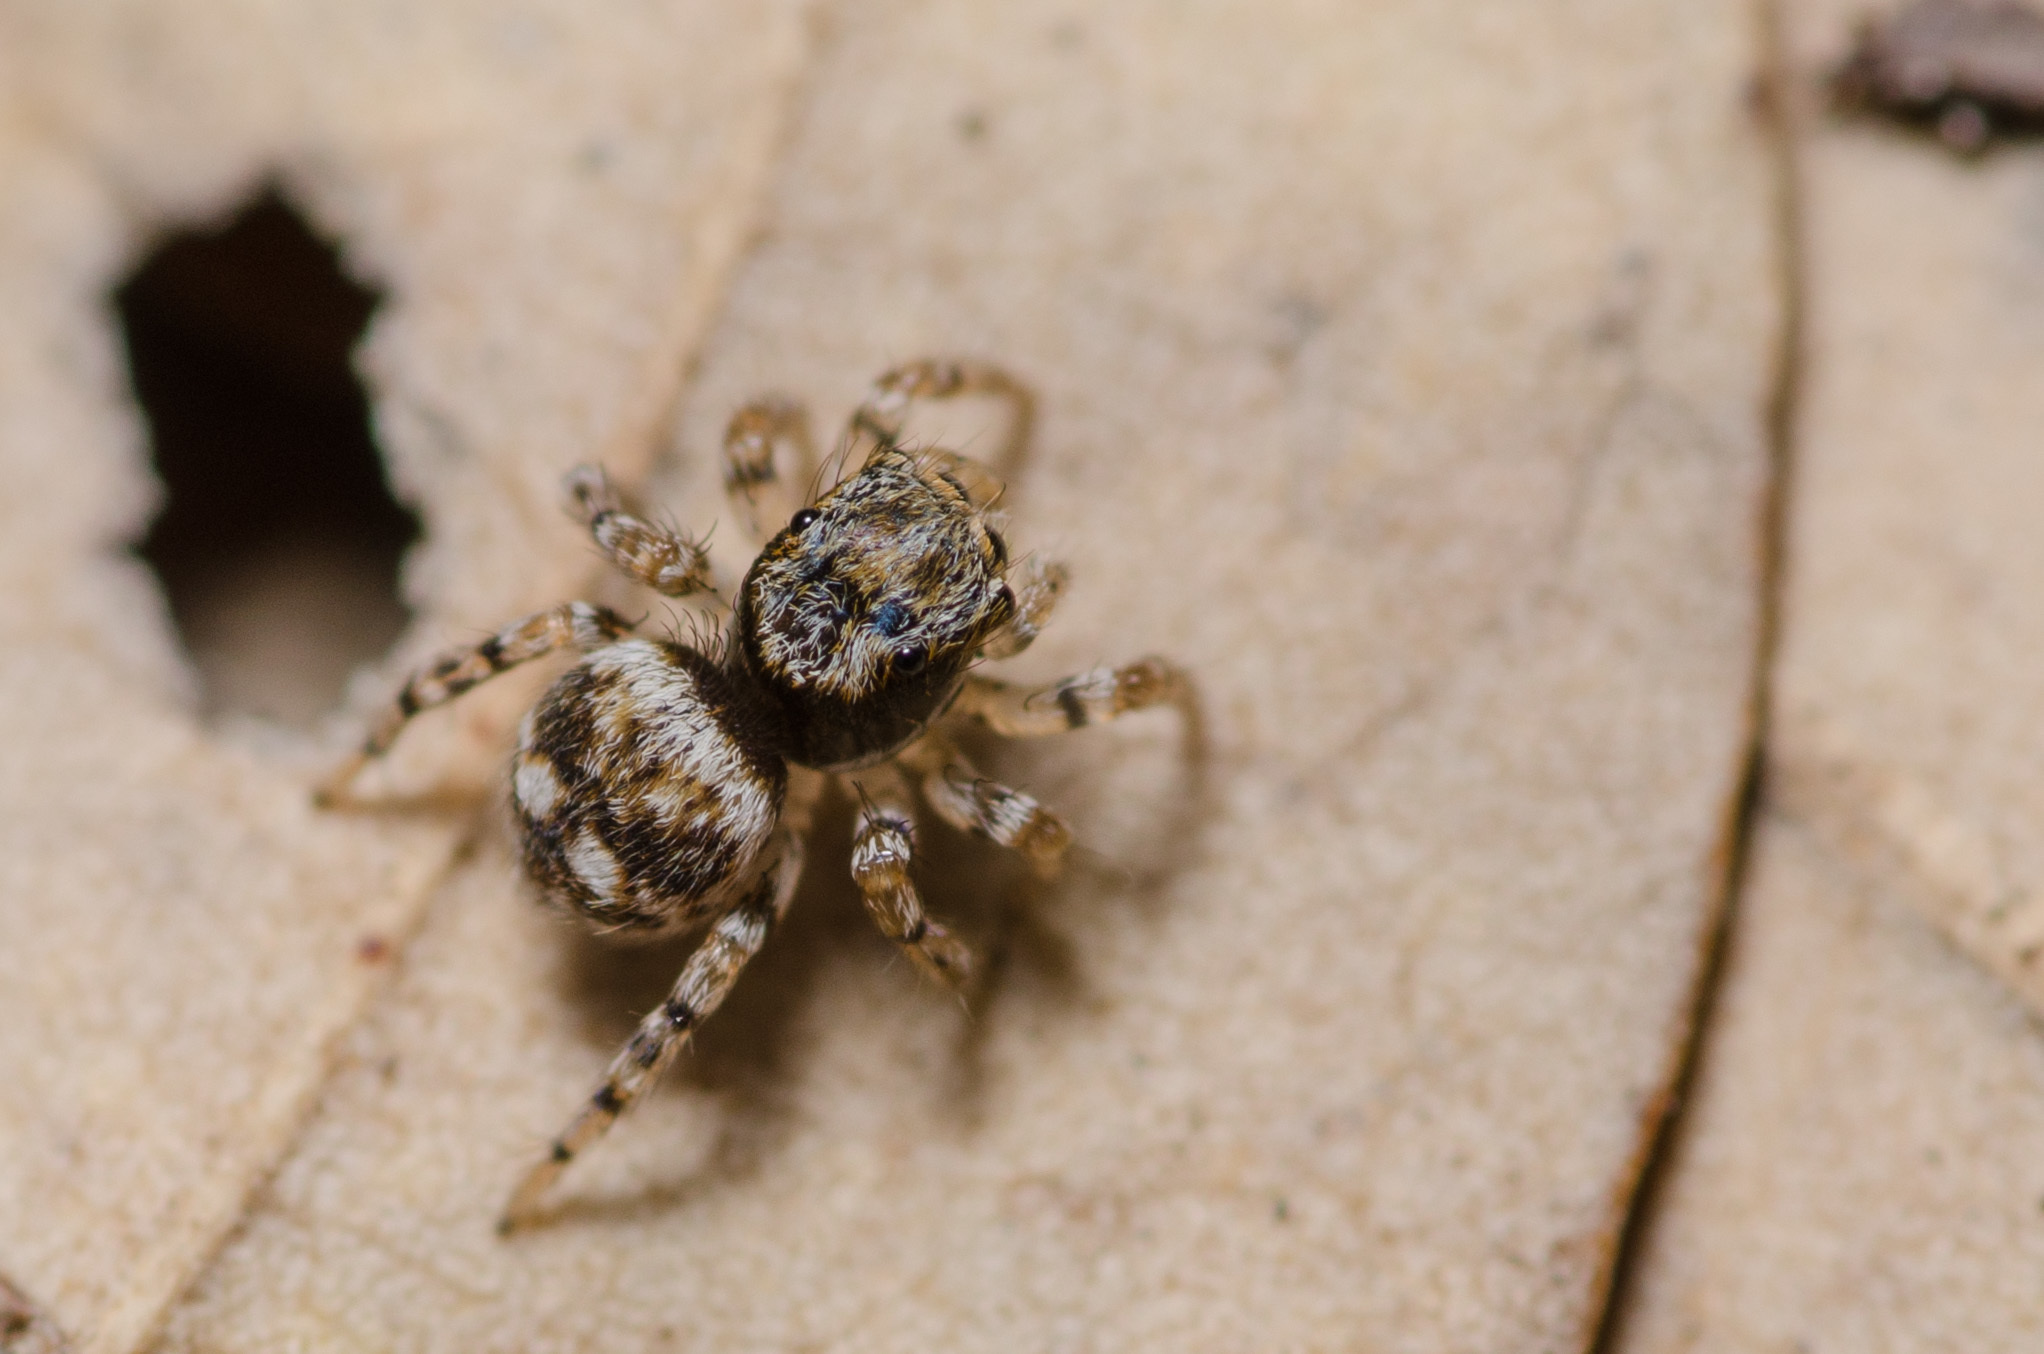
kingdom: Animalia
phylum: Arthropoda
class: Arachnida
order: Araneae
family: Salticidae
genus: Naphrys
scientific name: Naphrys acerba
